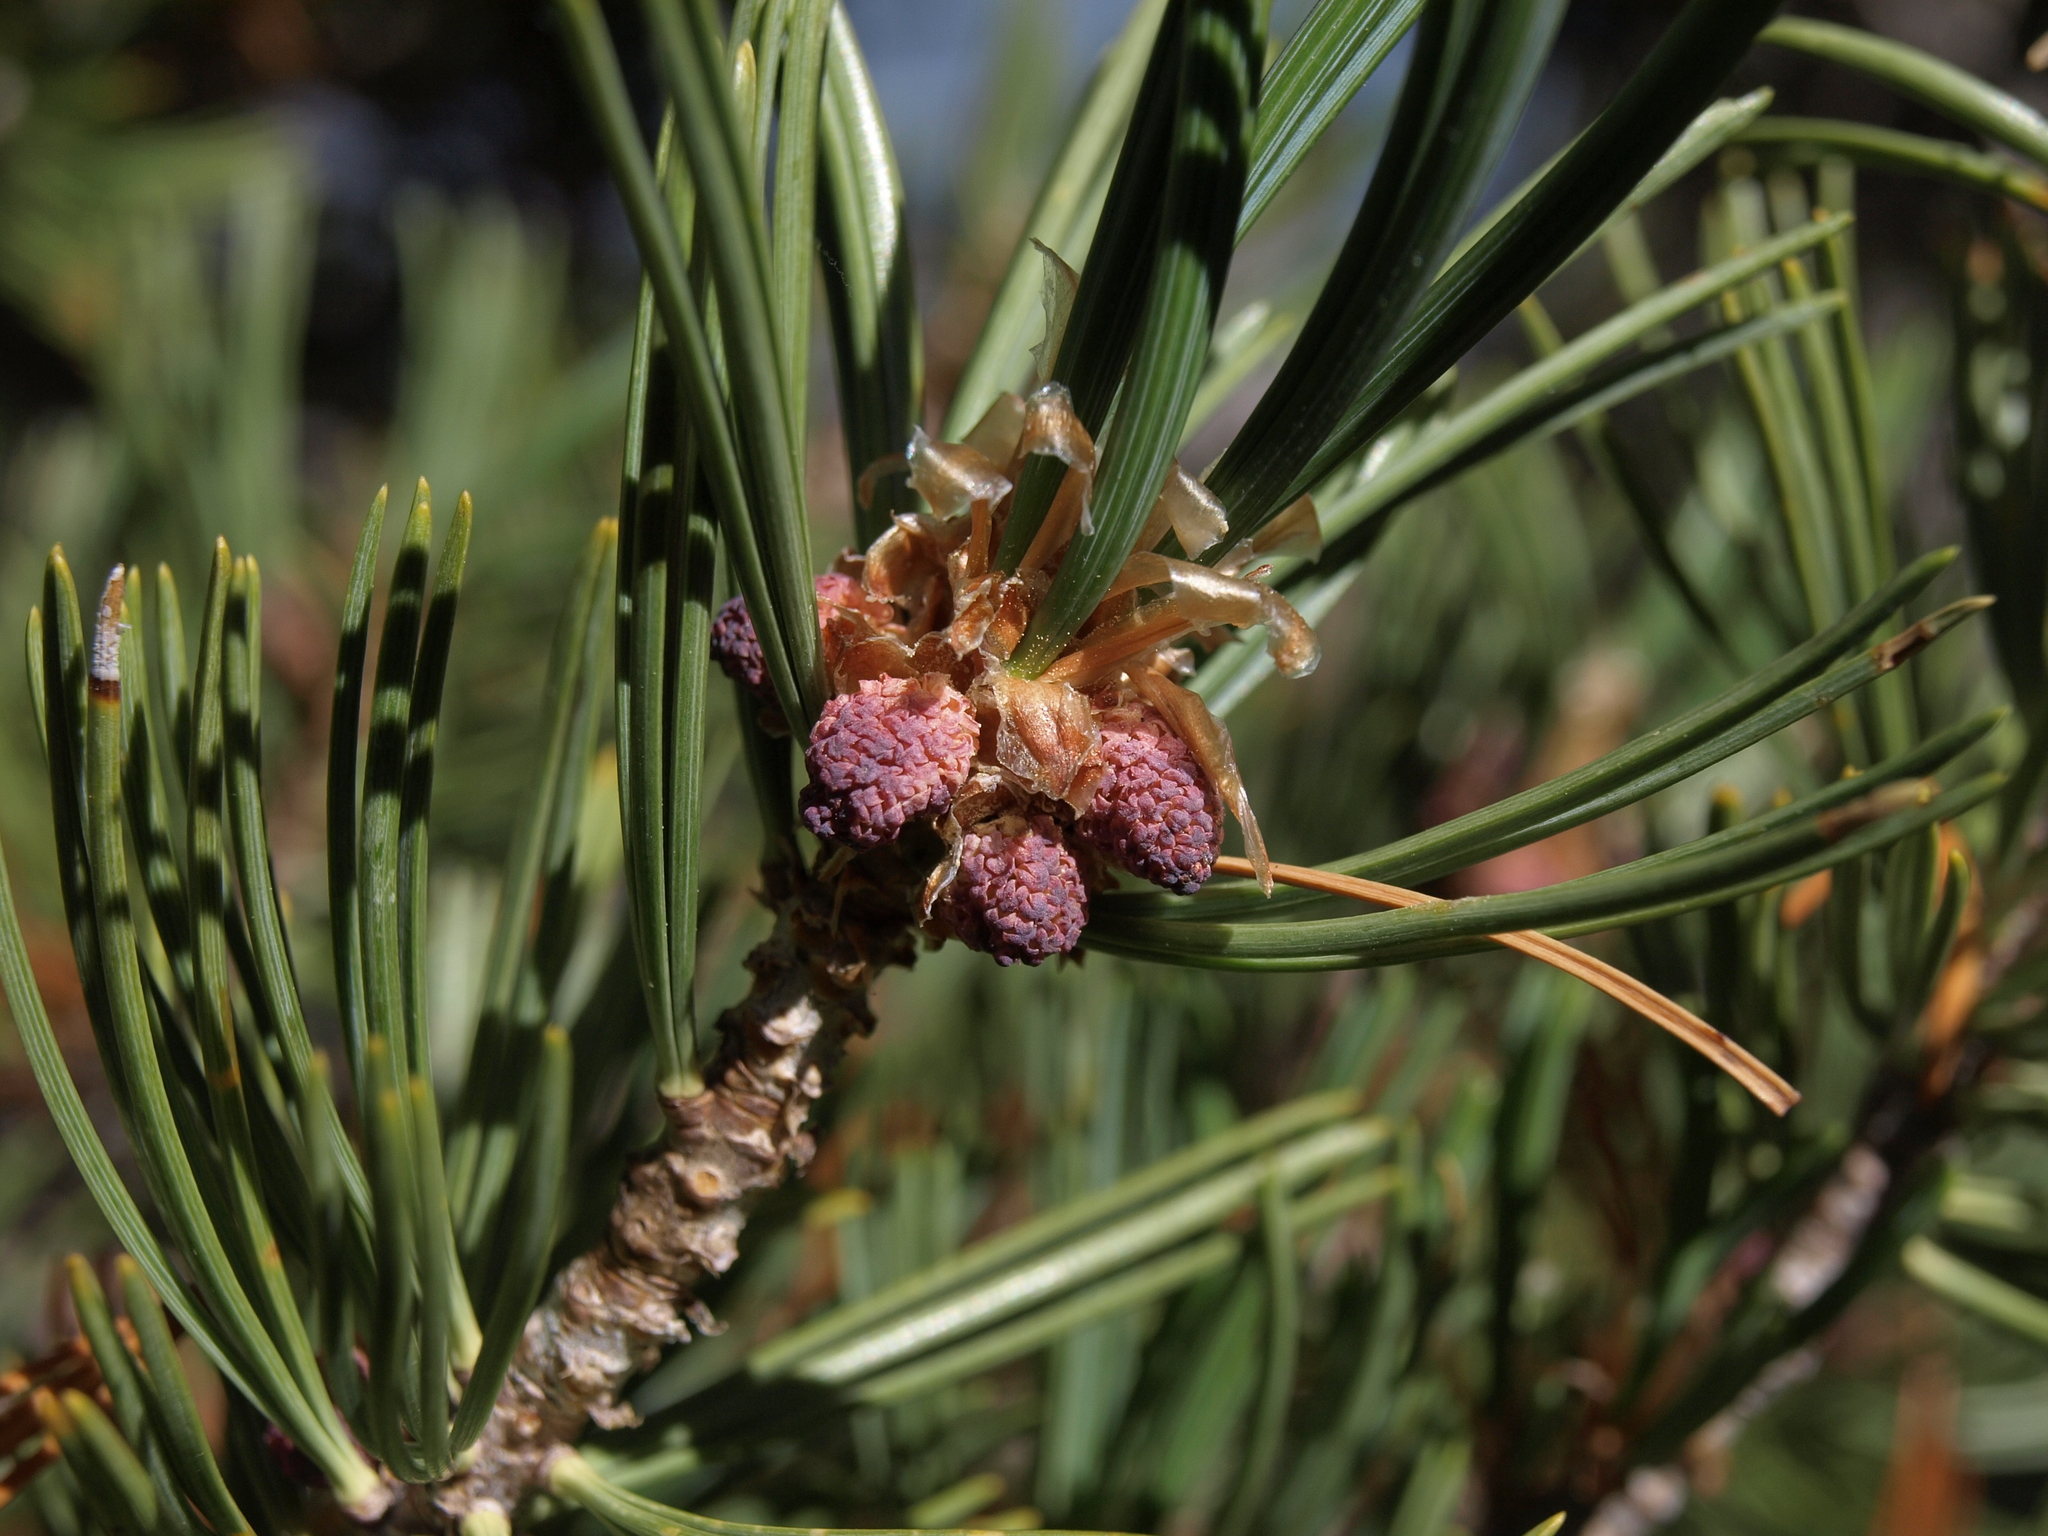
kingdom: Plantae
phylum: Tracheophyta
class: Pinopsida
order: Pinales
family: Pinaceae
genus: Pinus
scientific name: Pinus albicaulis
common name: Whitebark pine
